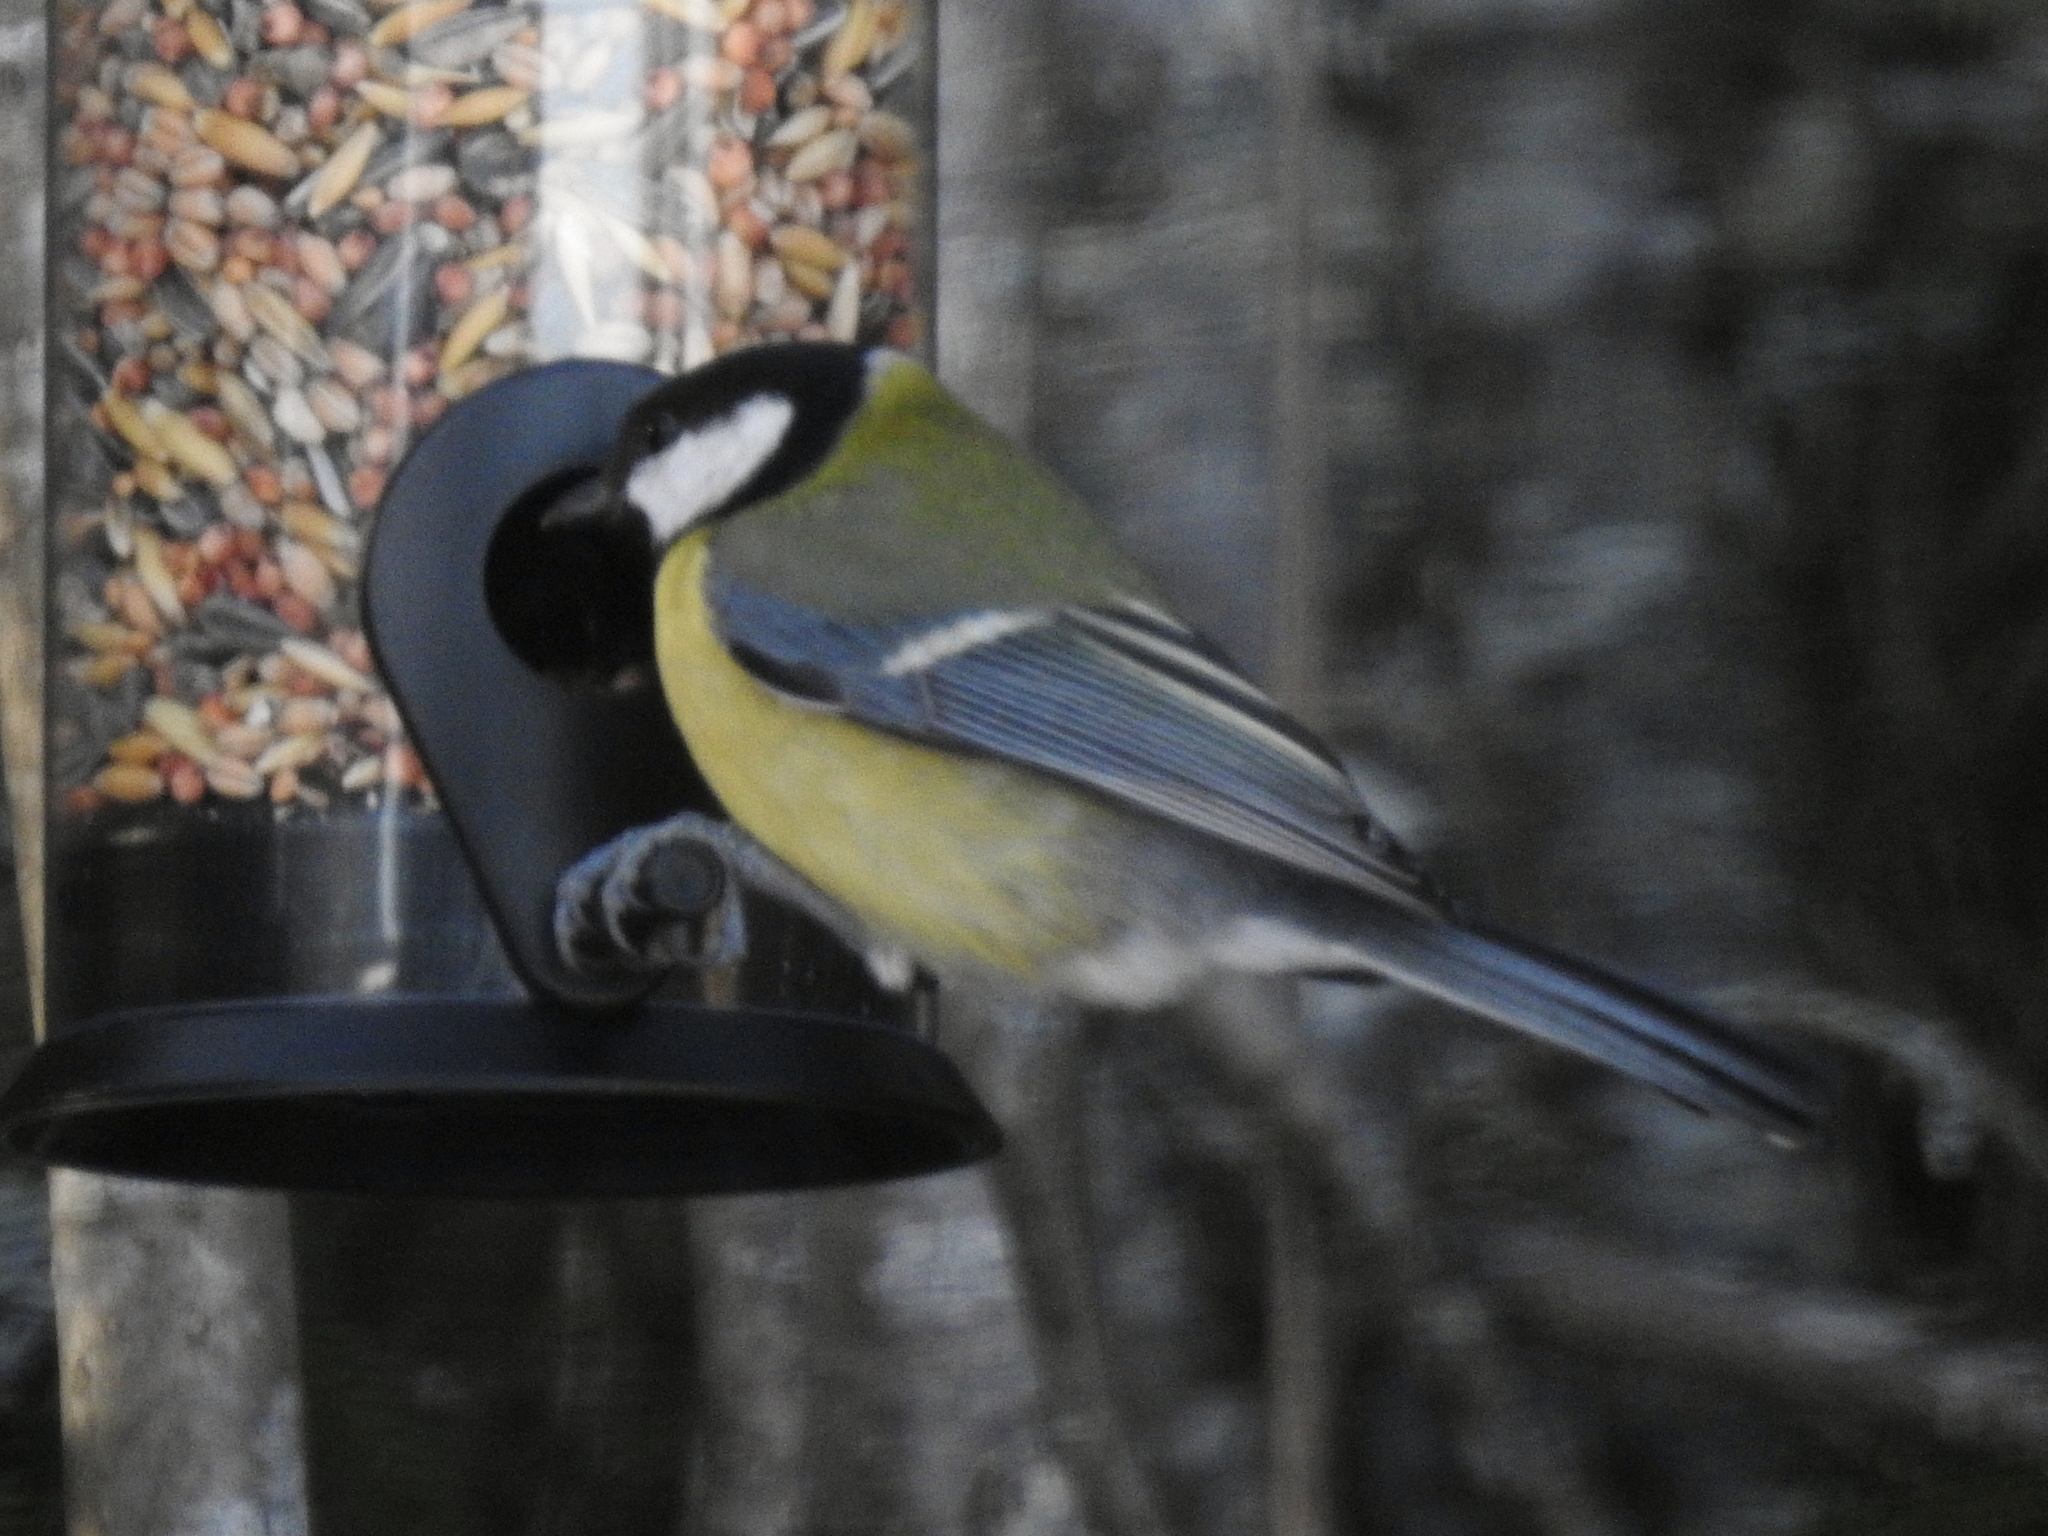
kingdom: Animalia
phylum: Chordata
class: Aves
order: Passeriformes
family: Paridae
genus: Parus
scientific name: Parus major
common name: Great tit
